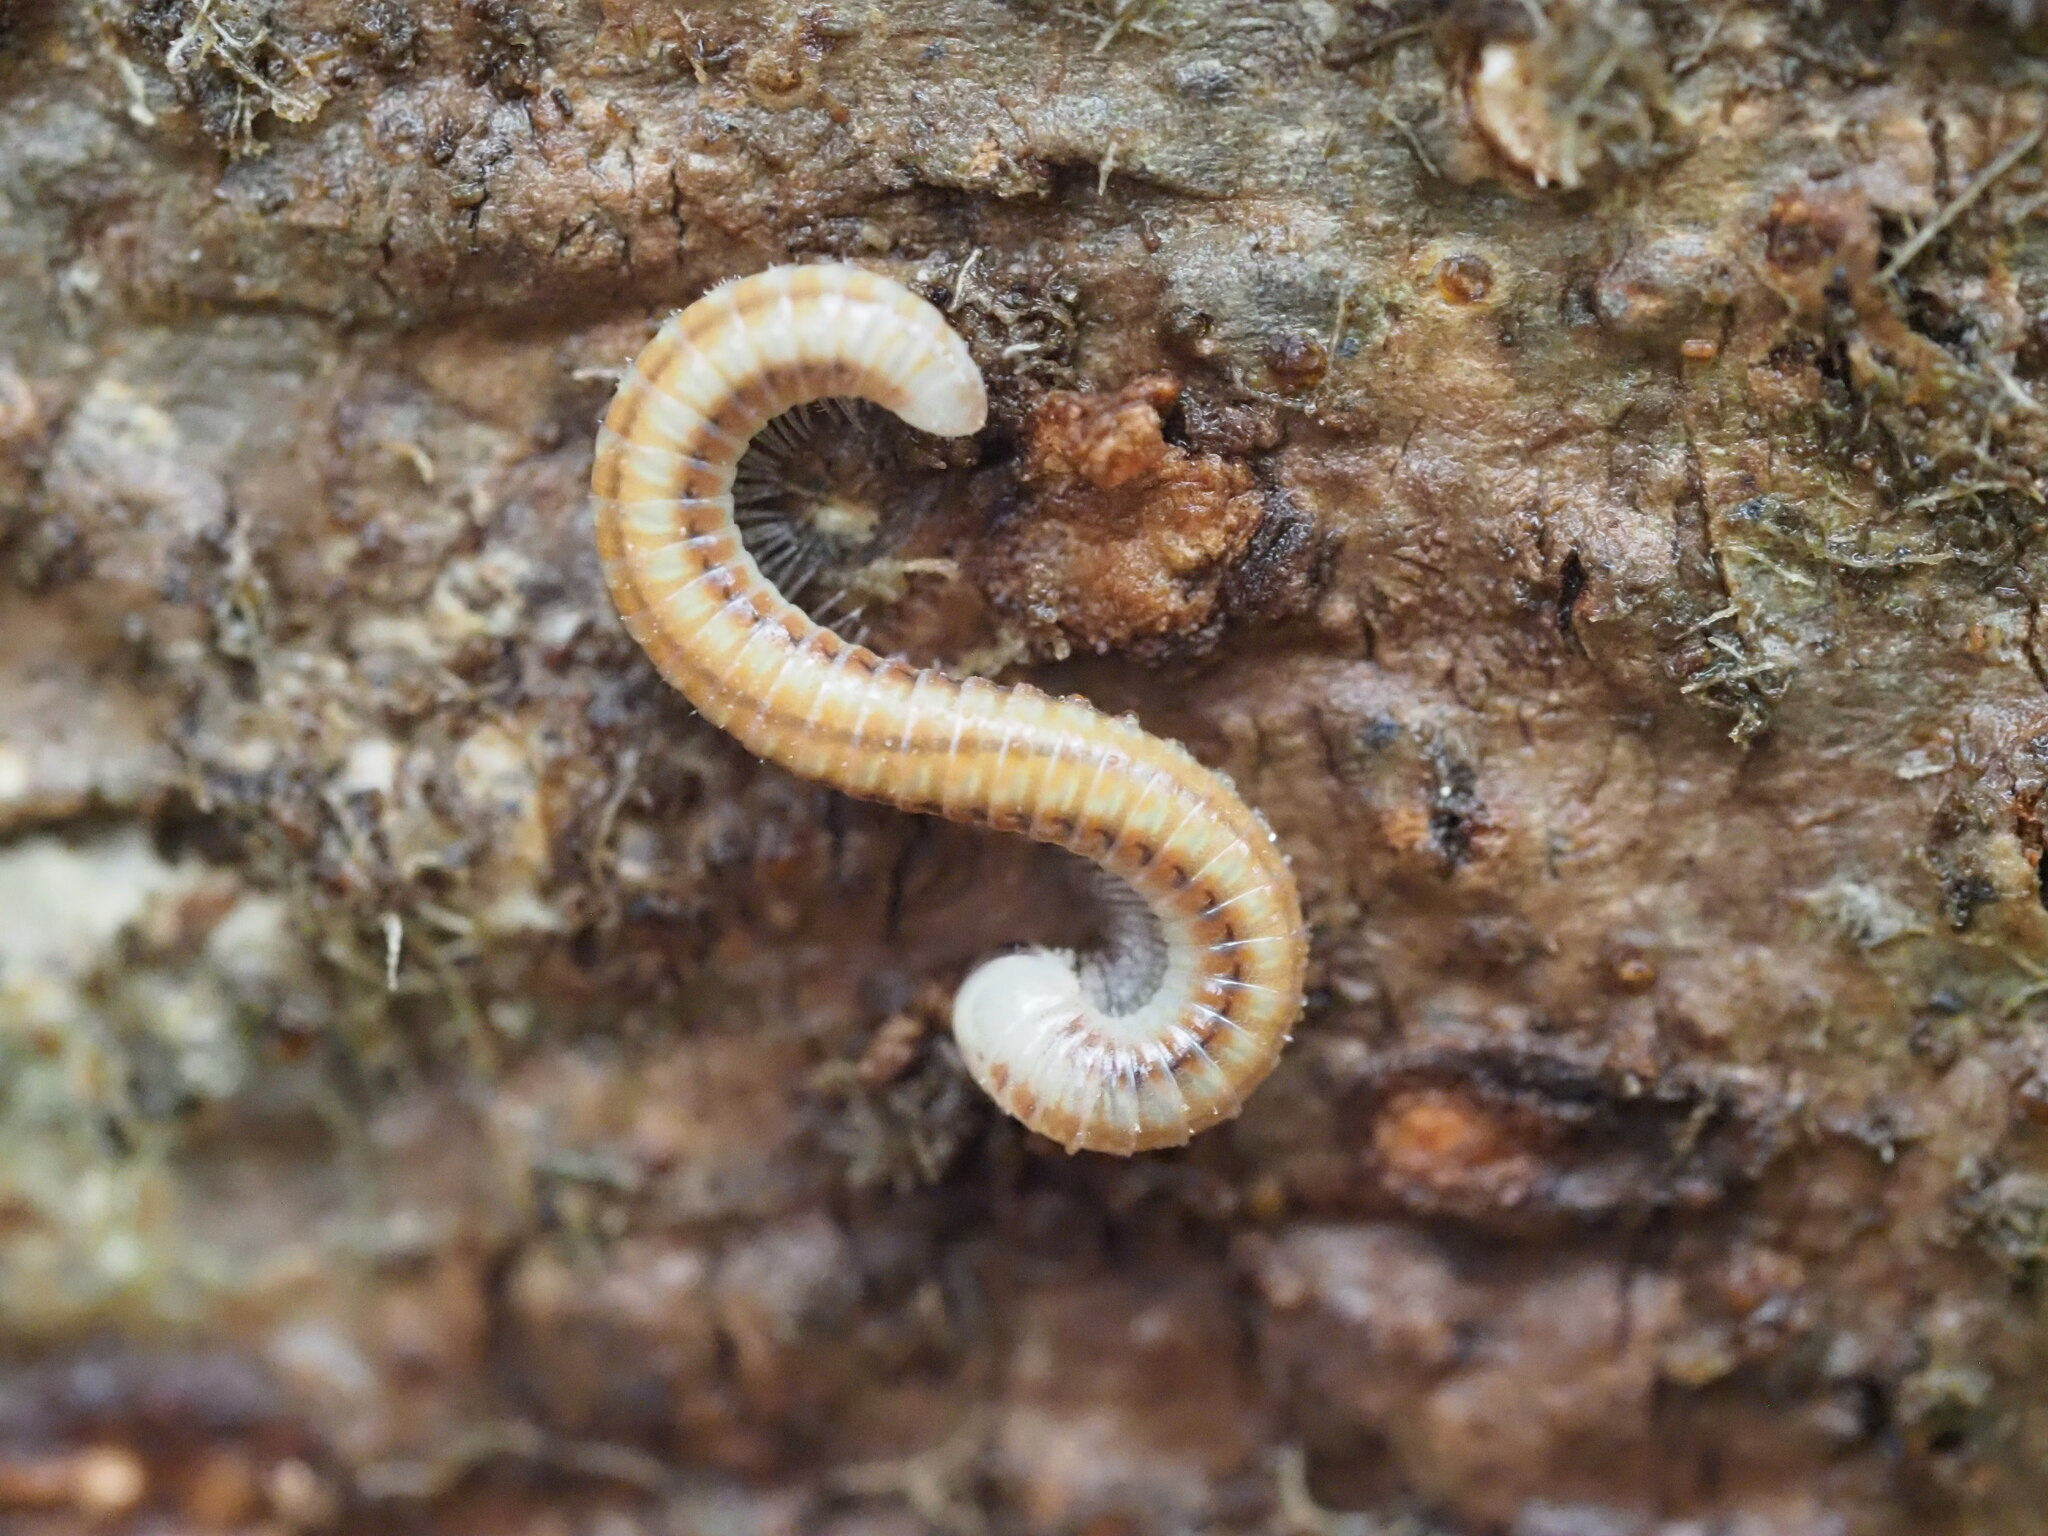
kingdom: Animalia
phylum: Arthropoda
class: Diplopoda
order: Spirobolida
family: Spirobolellidae
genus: Spirobolellus
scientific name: Spirobolellus immigrans
